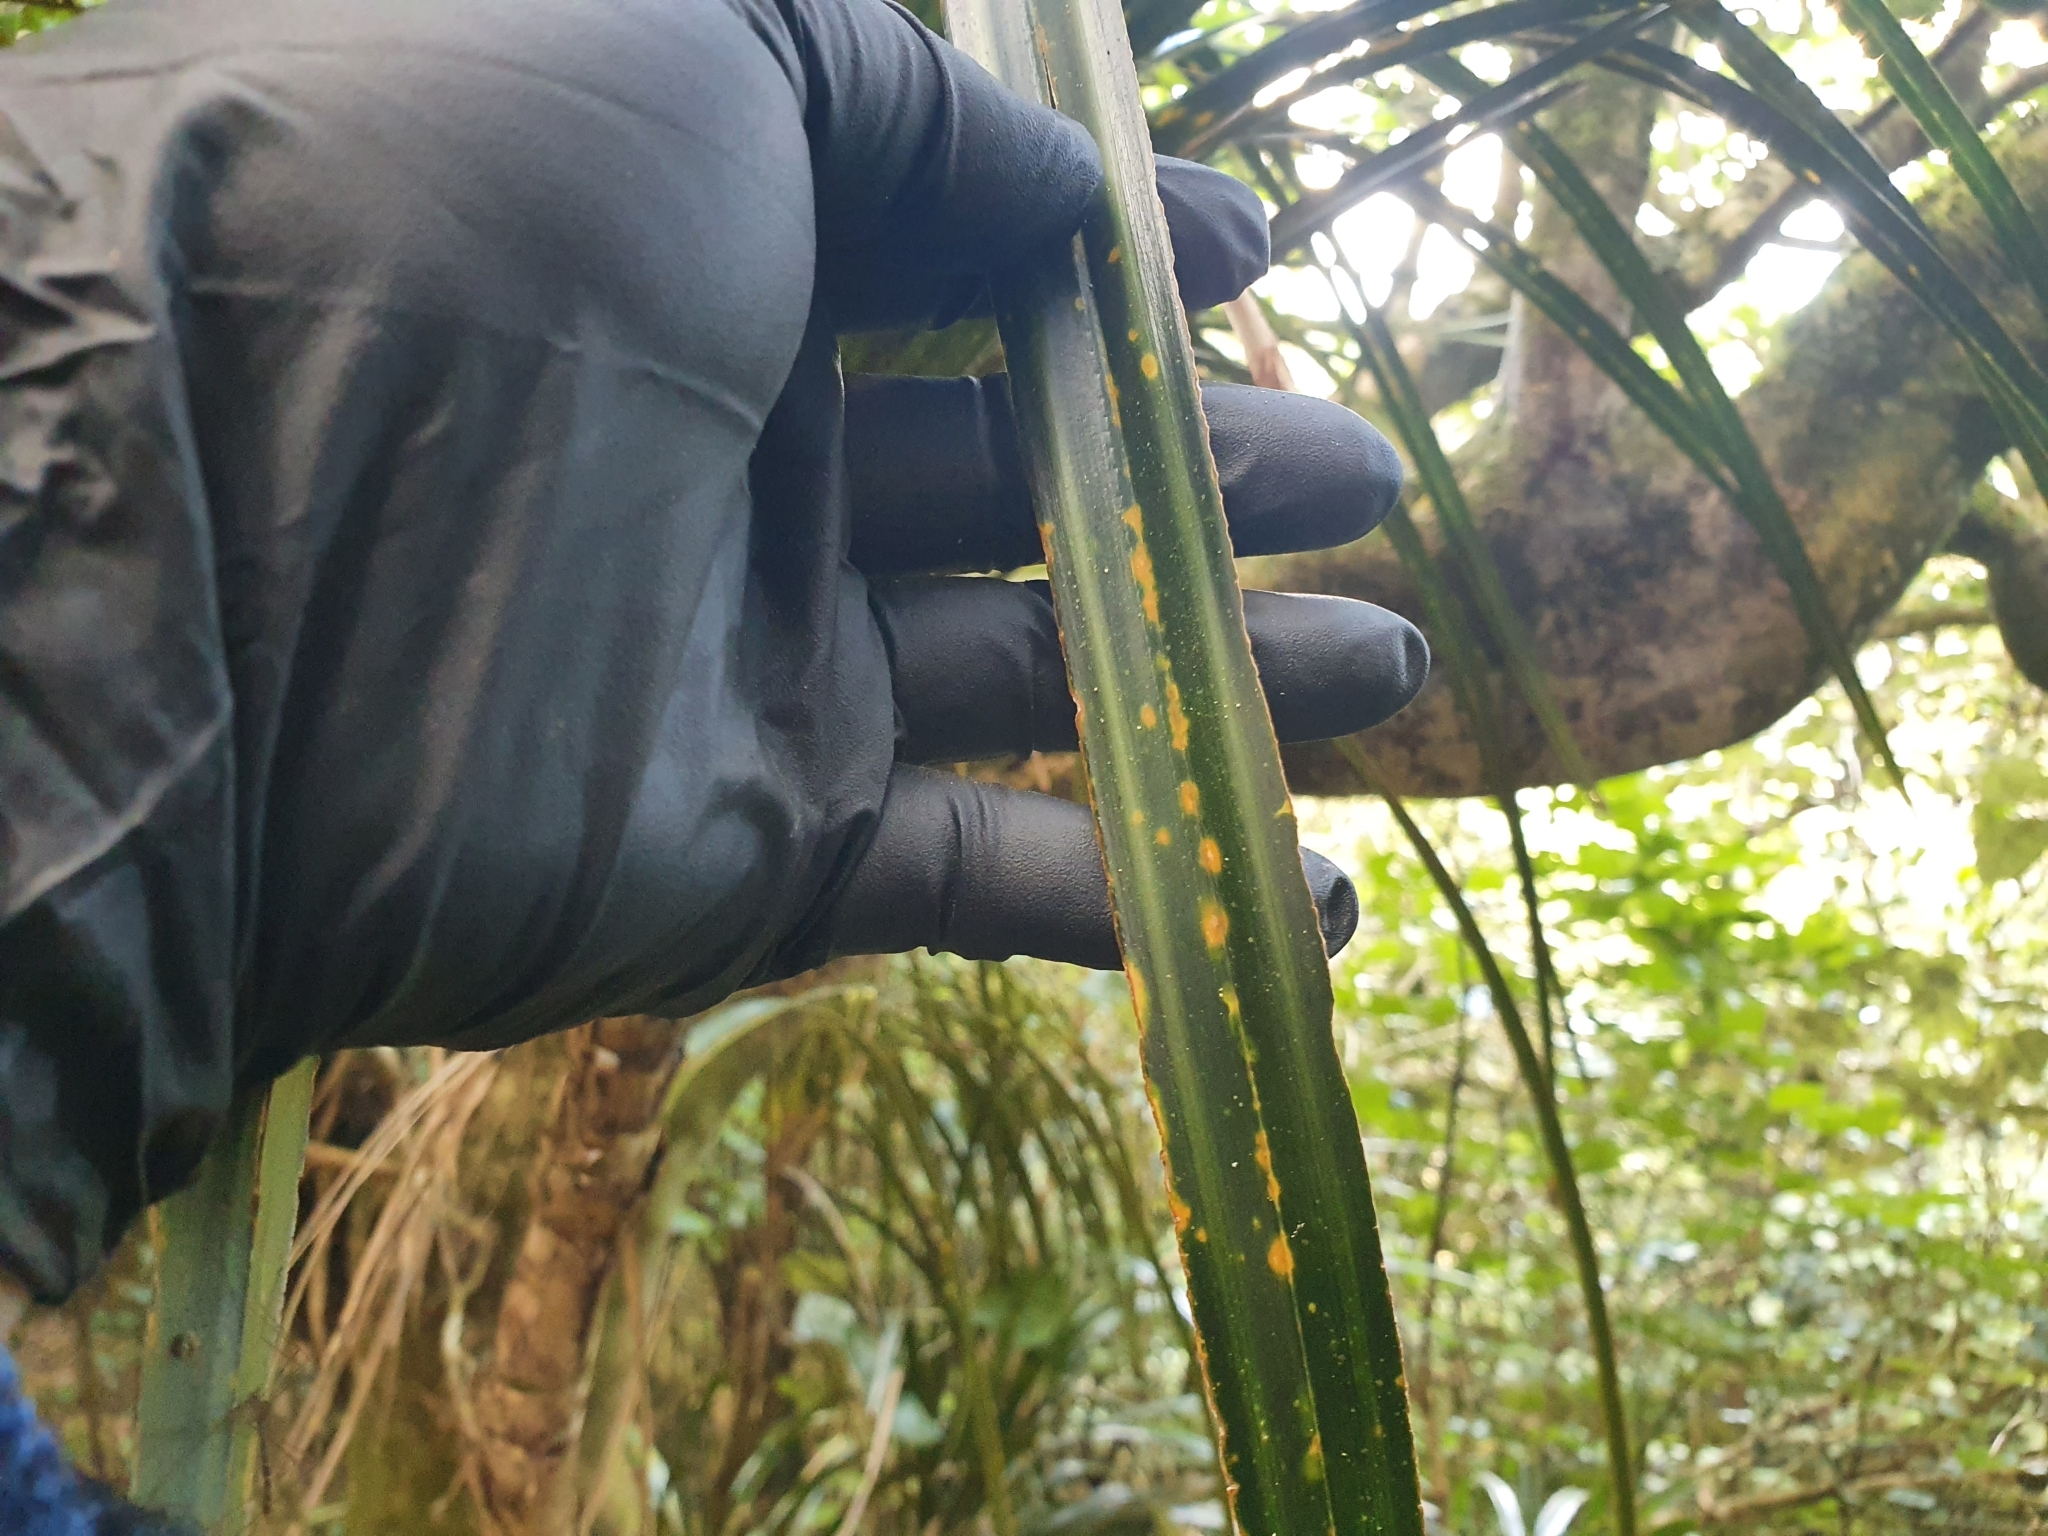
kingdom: Plantae
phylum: Tracheophyta
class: Liliopsida
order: Pandanales
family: Pandanaceae
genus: Freycinetia
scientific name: Freycinetia banksii
